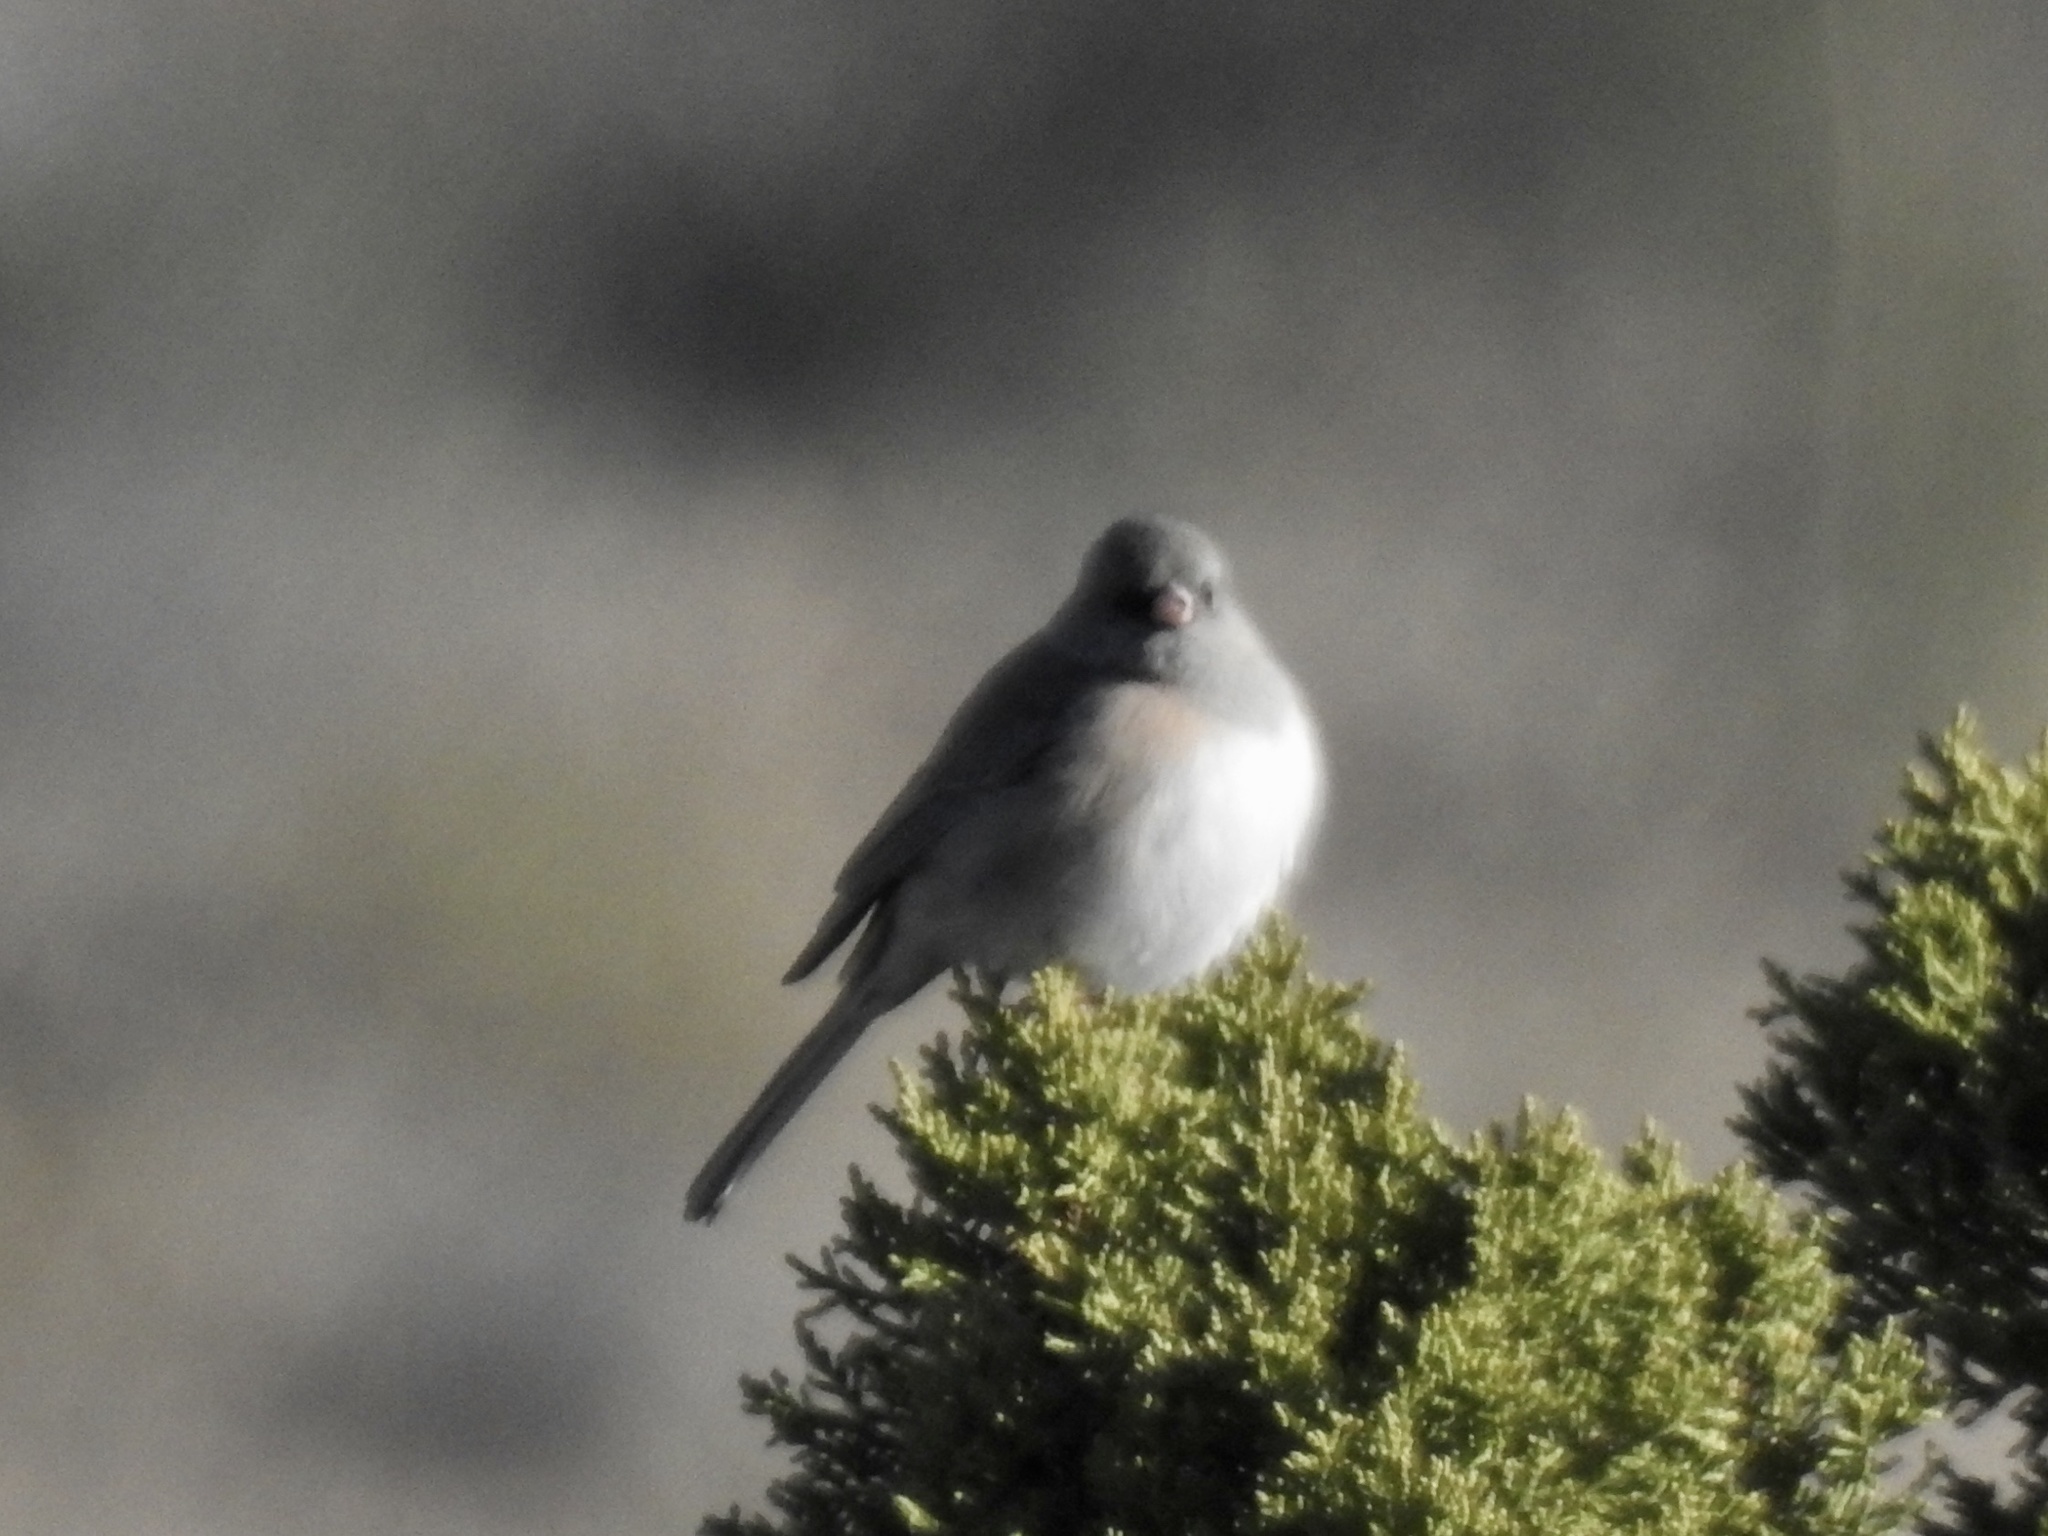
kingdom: Animalia
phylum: Chordata
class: Aves
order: Passeriformes
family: Passerellidae
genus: Junco
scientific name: Junco hyemalis
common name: Dark-eyed junco
